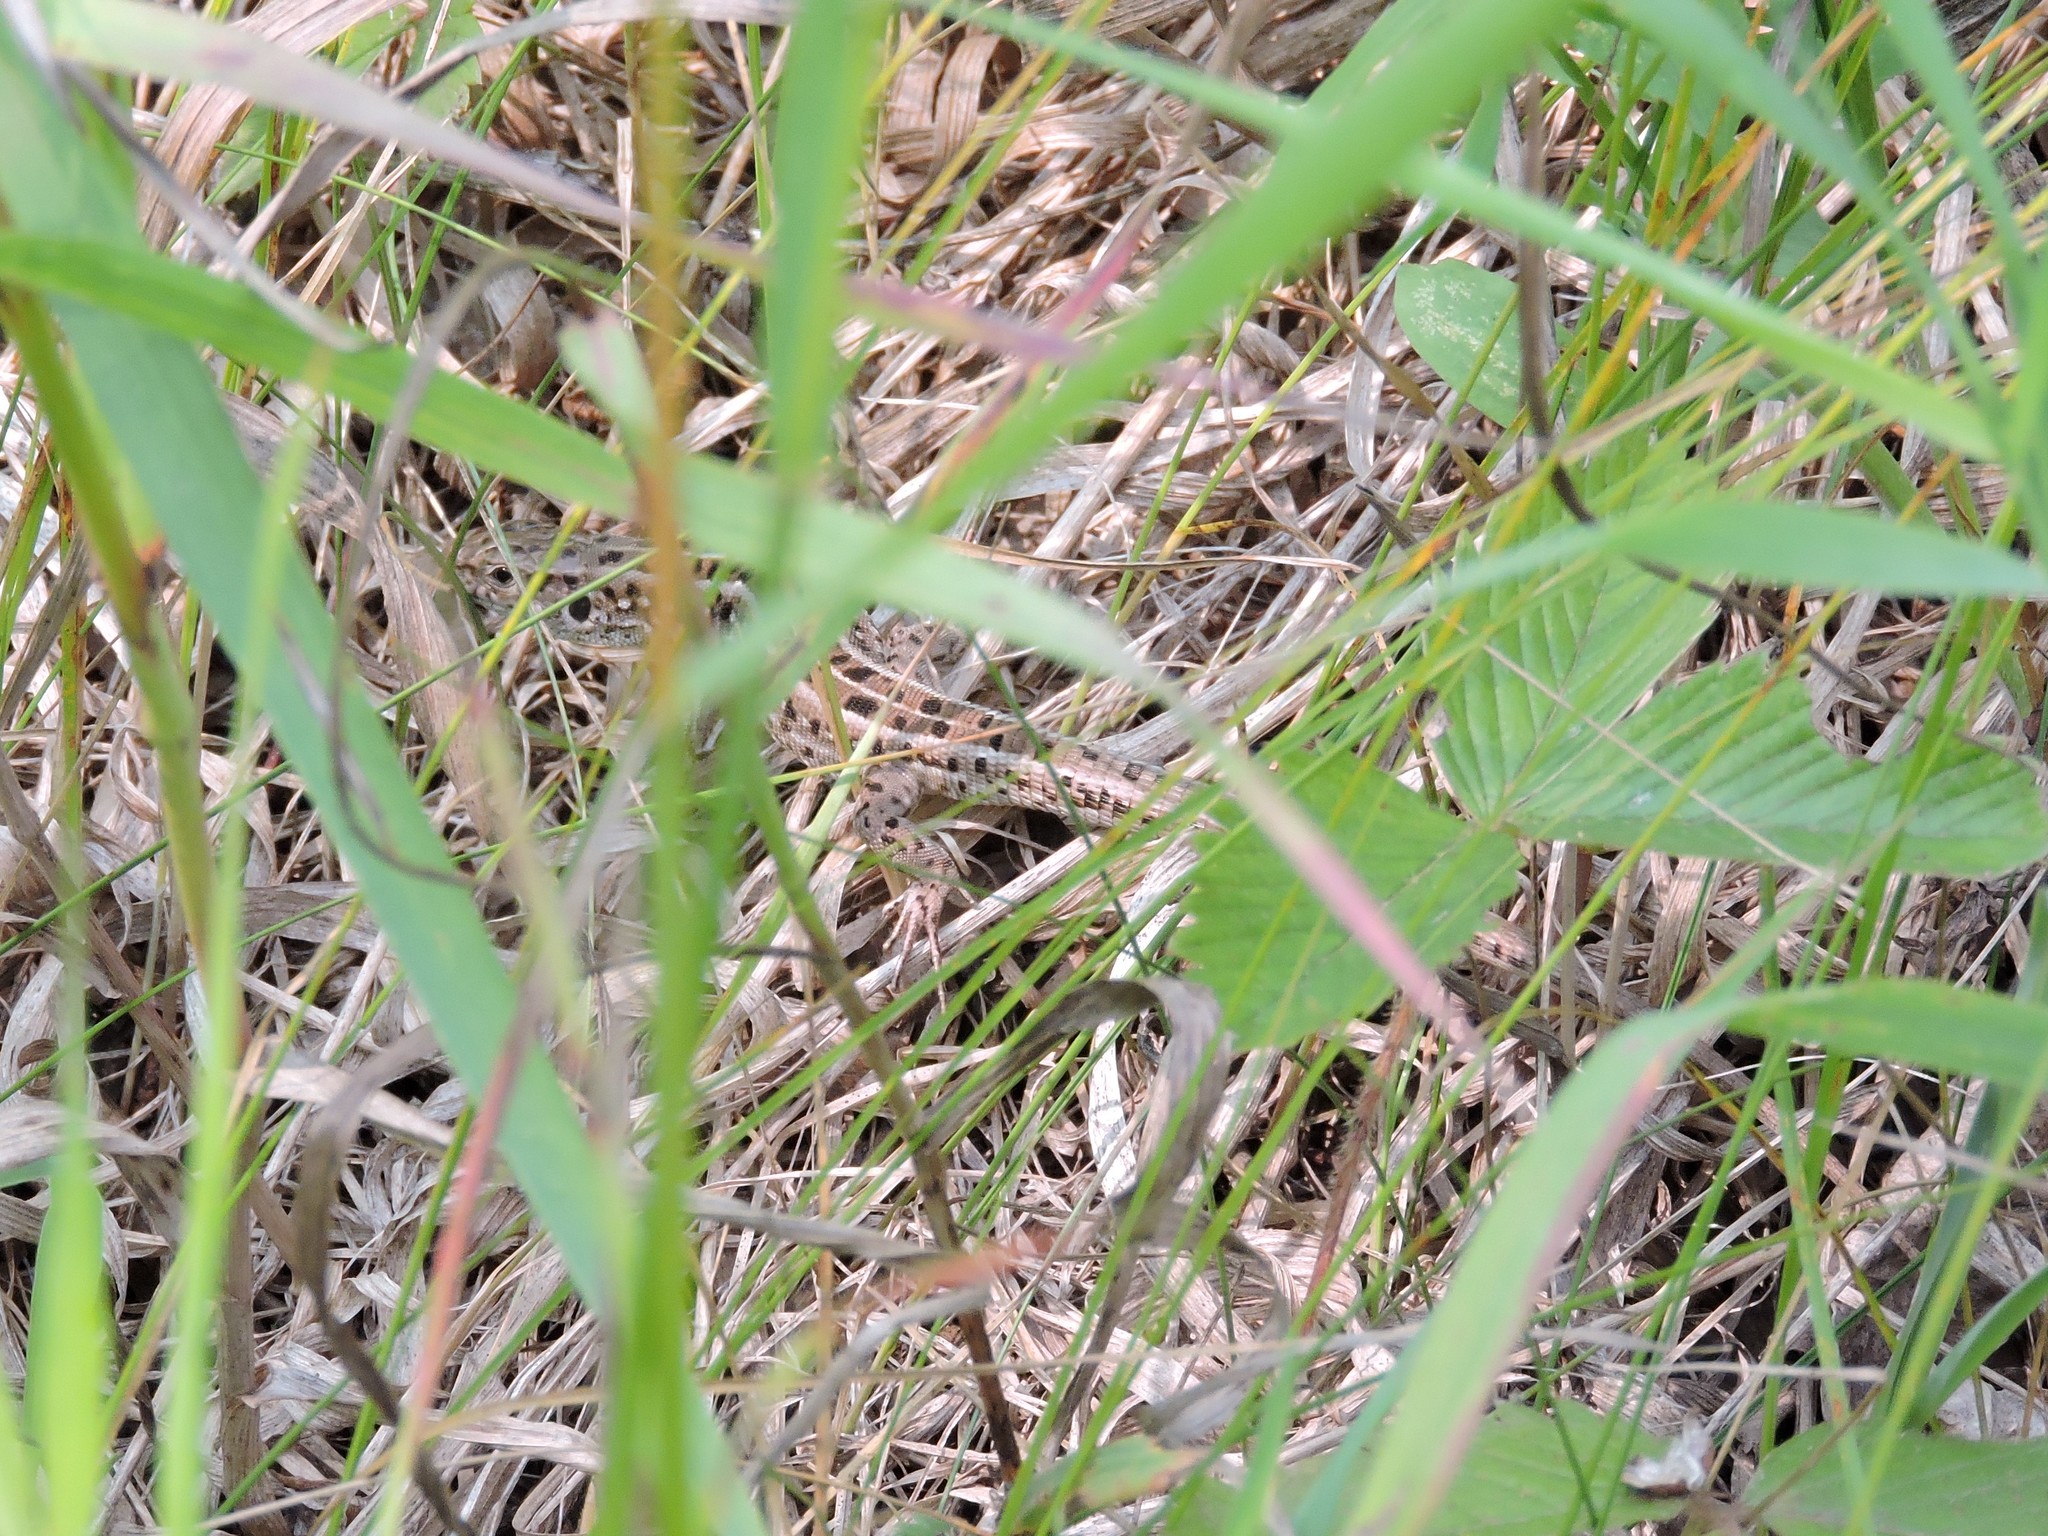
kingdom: Animalia
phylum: Chordata
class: Squamata
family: Lacertidae
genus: Lacerta
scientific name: Lacerta agilis
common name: Sand lizard
